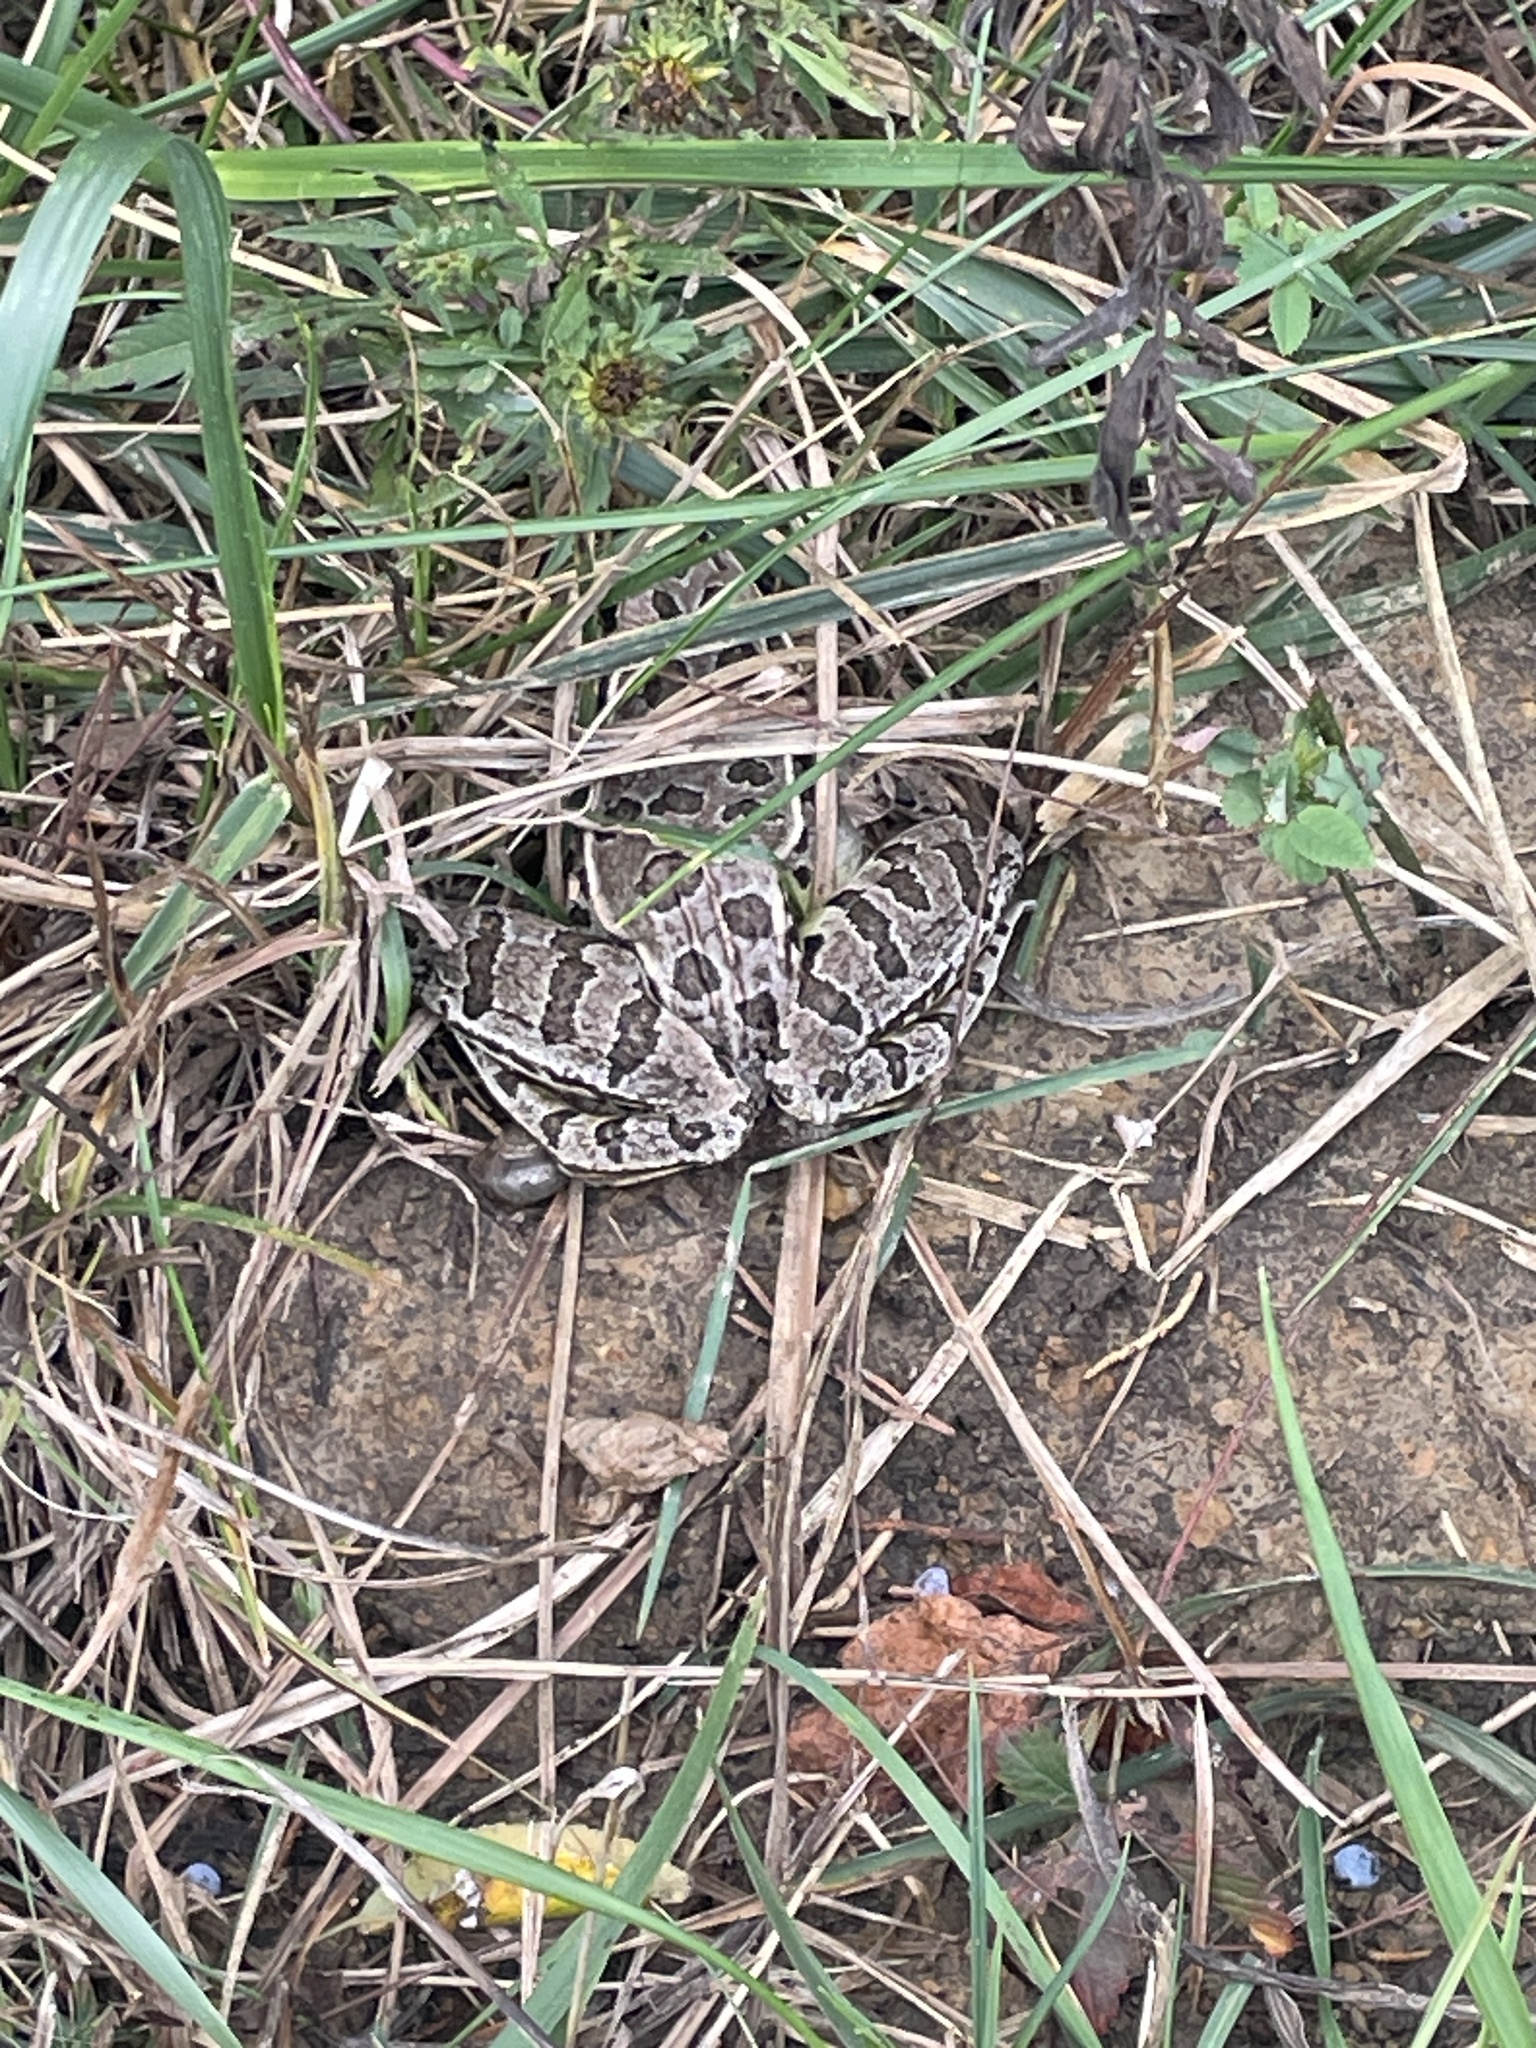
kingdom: Animalia
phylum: Chordata
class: Amphibia
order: Anura
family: Ranidae
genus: Lithobates
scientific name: Lithobates blairi
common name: Plains leopard frog
